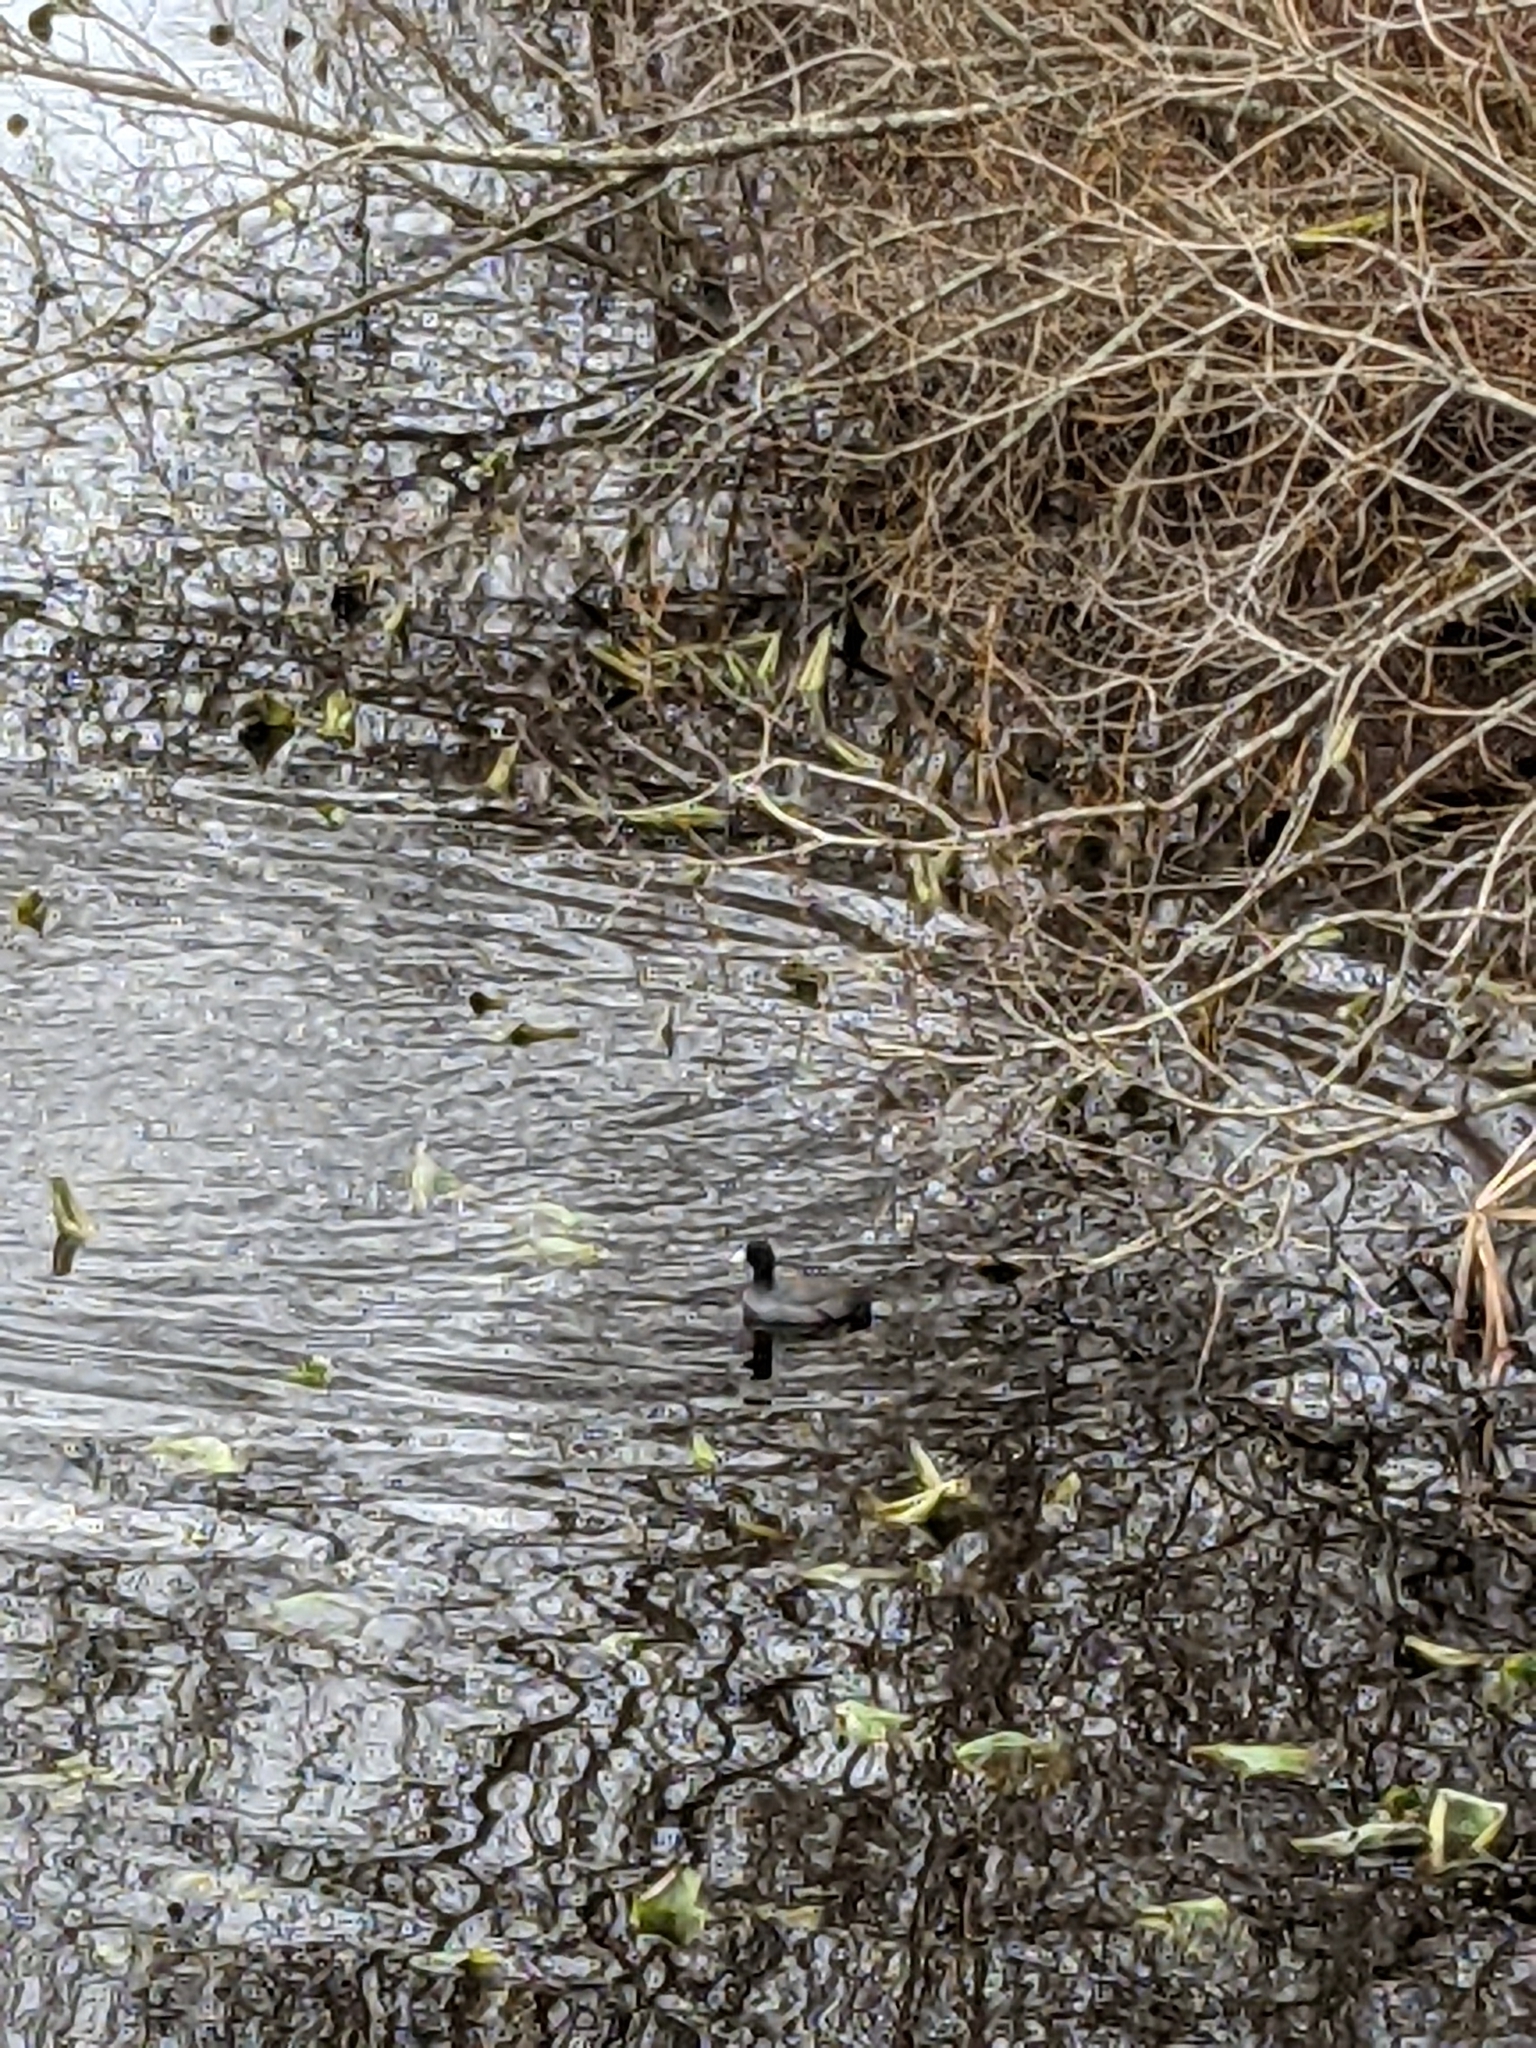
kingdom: Animalia
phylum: Chordata
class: Aves
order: Gruiformes
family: Rallidae
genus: Fulica
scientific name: Fulica americana
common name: American coot
